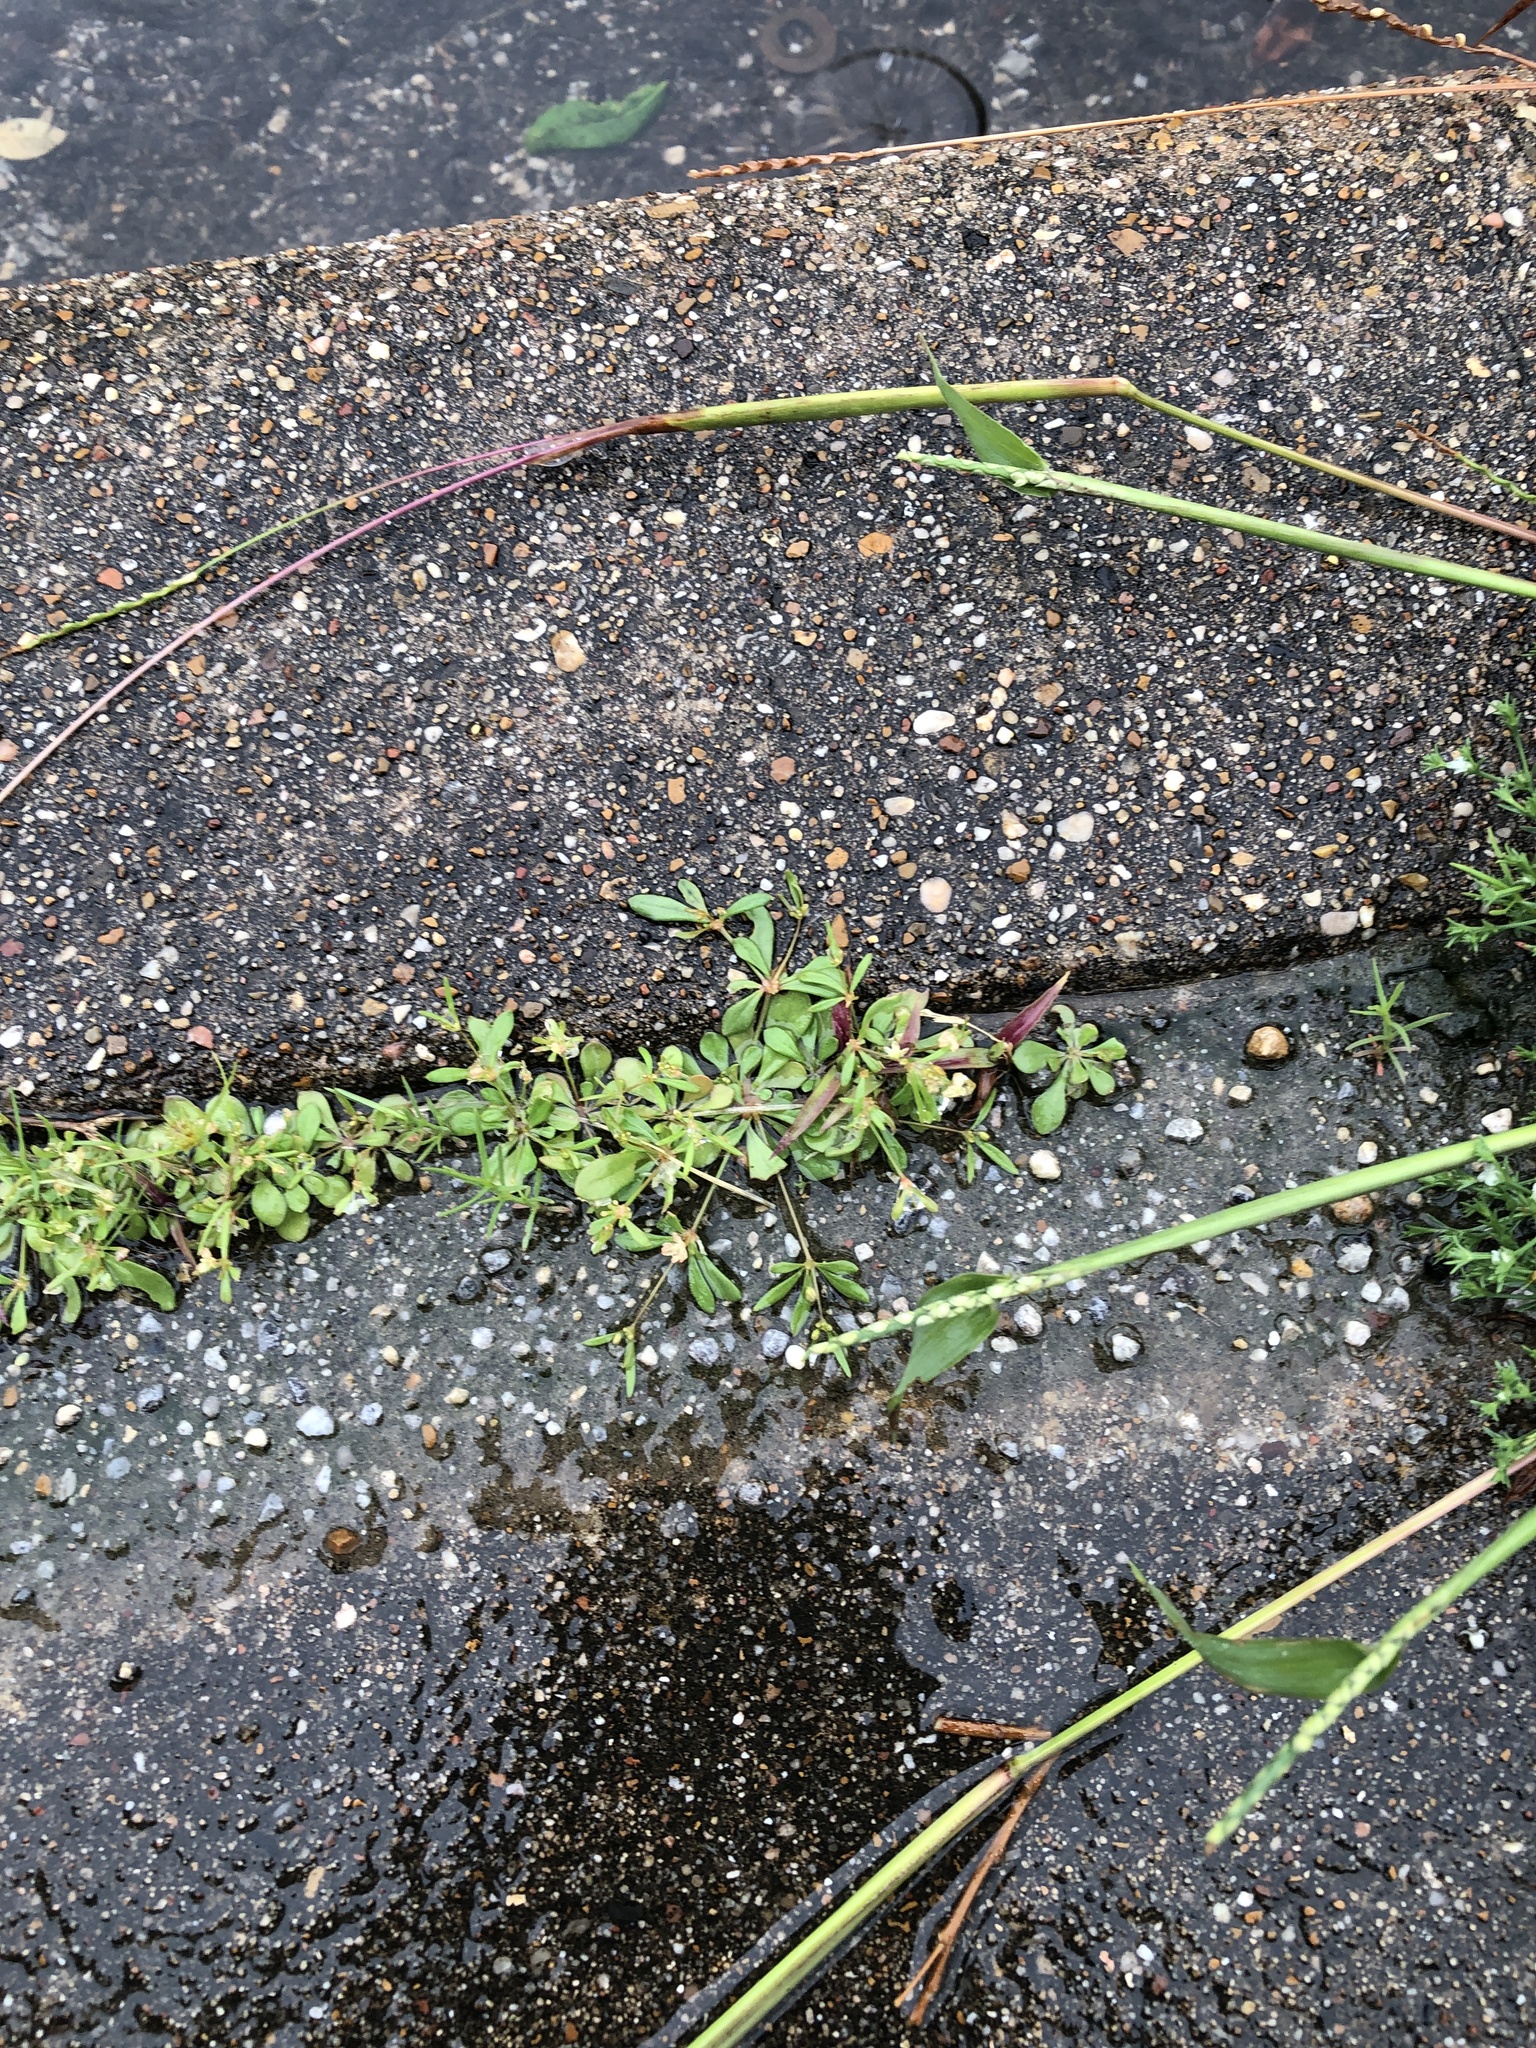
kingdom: Plantae
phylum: Tracheophyta
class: Magnoliopsida
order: Caryophyllales
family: Molluginaceae
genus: Mollugo
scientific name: Mollugo verticillata
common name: Green carpetweed
